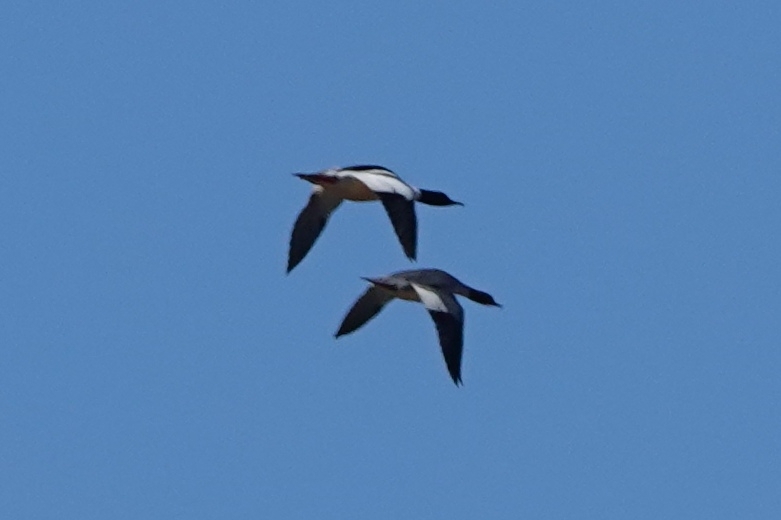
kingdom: Animalia
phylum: Chordata
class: Aves
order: Anseriformes
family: Anatidae
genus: Mergus
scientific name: Mergus merganser
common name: Common merganser
